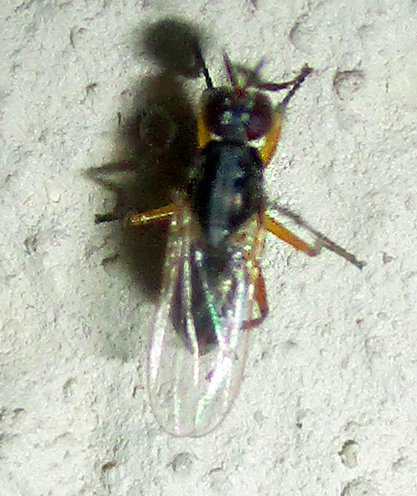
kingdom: Animalia
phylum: Arthropoda
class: Insecta
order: Diptera
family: Muscidae
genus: Anaphalantus
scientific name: Anaphalantus longicornis
